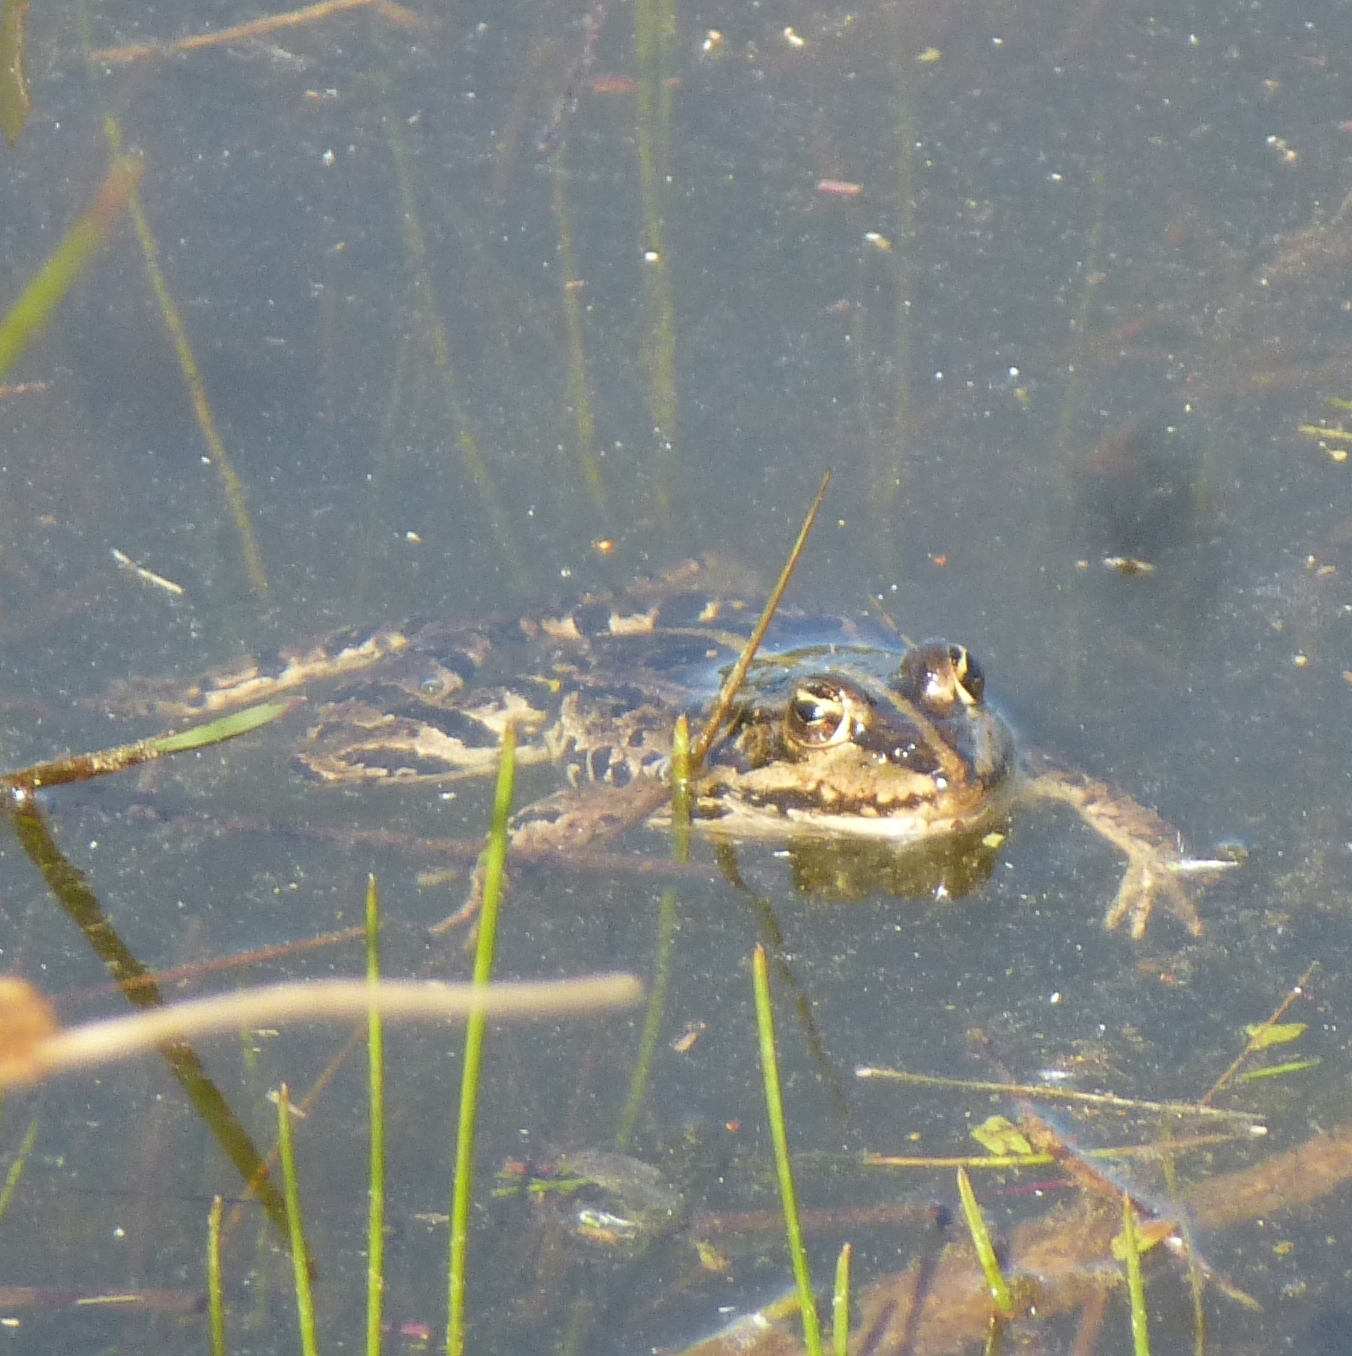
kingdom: Animalia
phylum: Chordata
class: Amphibia
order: Anura
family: Ranidae
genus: Pelophylax
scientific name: Pelophylax
